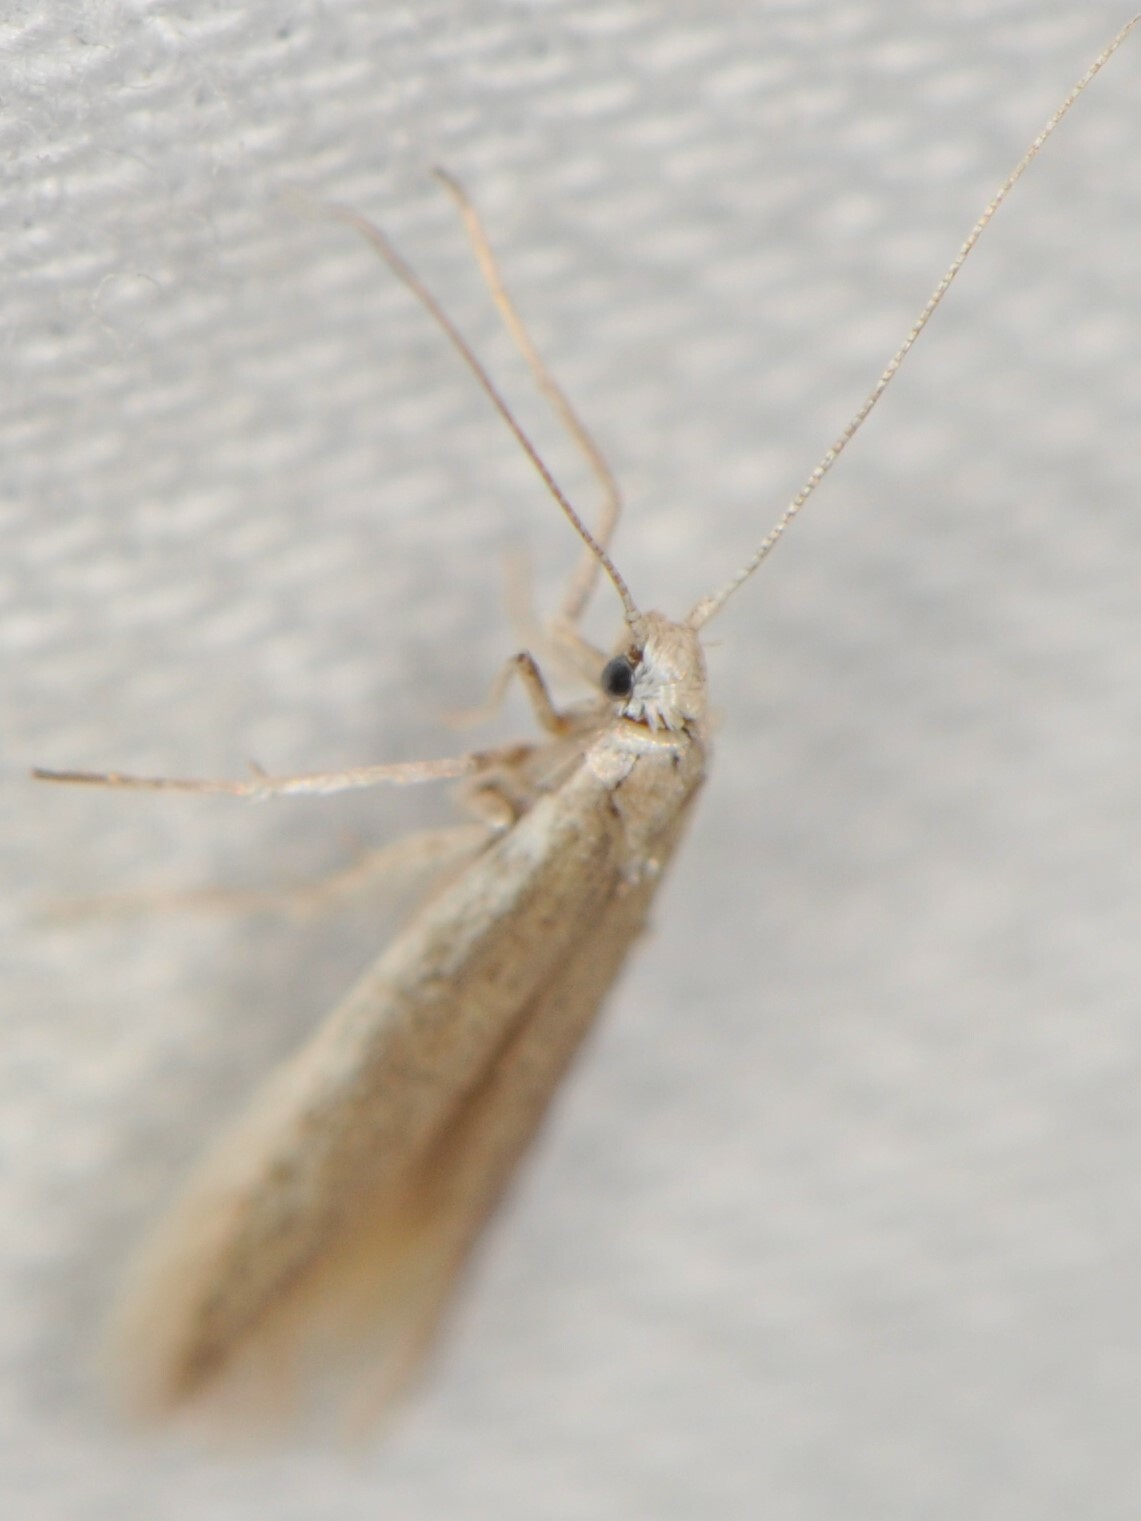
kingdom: Animalia
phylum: Arthropoda
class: Insecta
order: Lepidoptera
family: Coleophoridae
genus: Coleophora
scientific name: Coleophora
